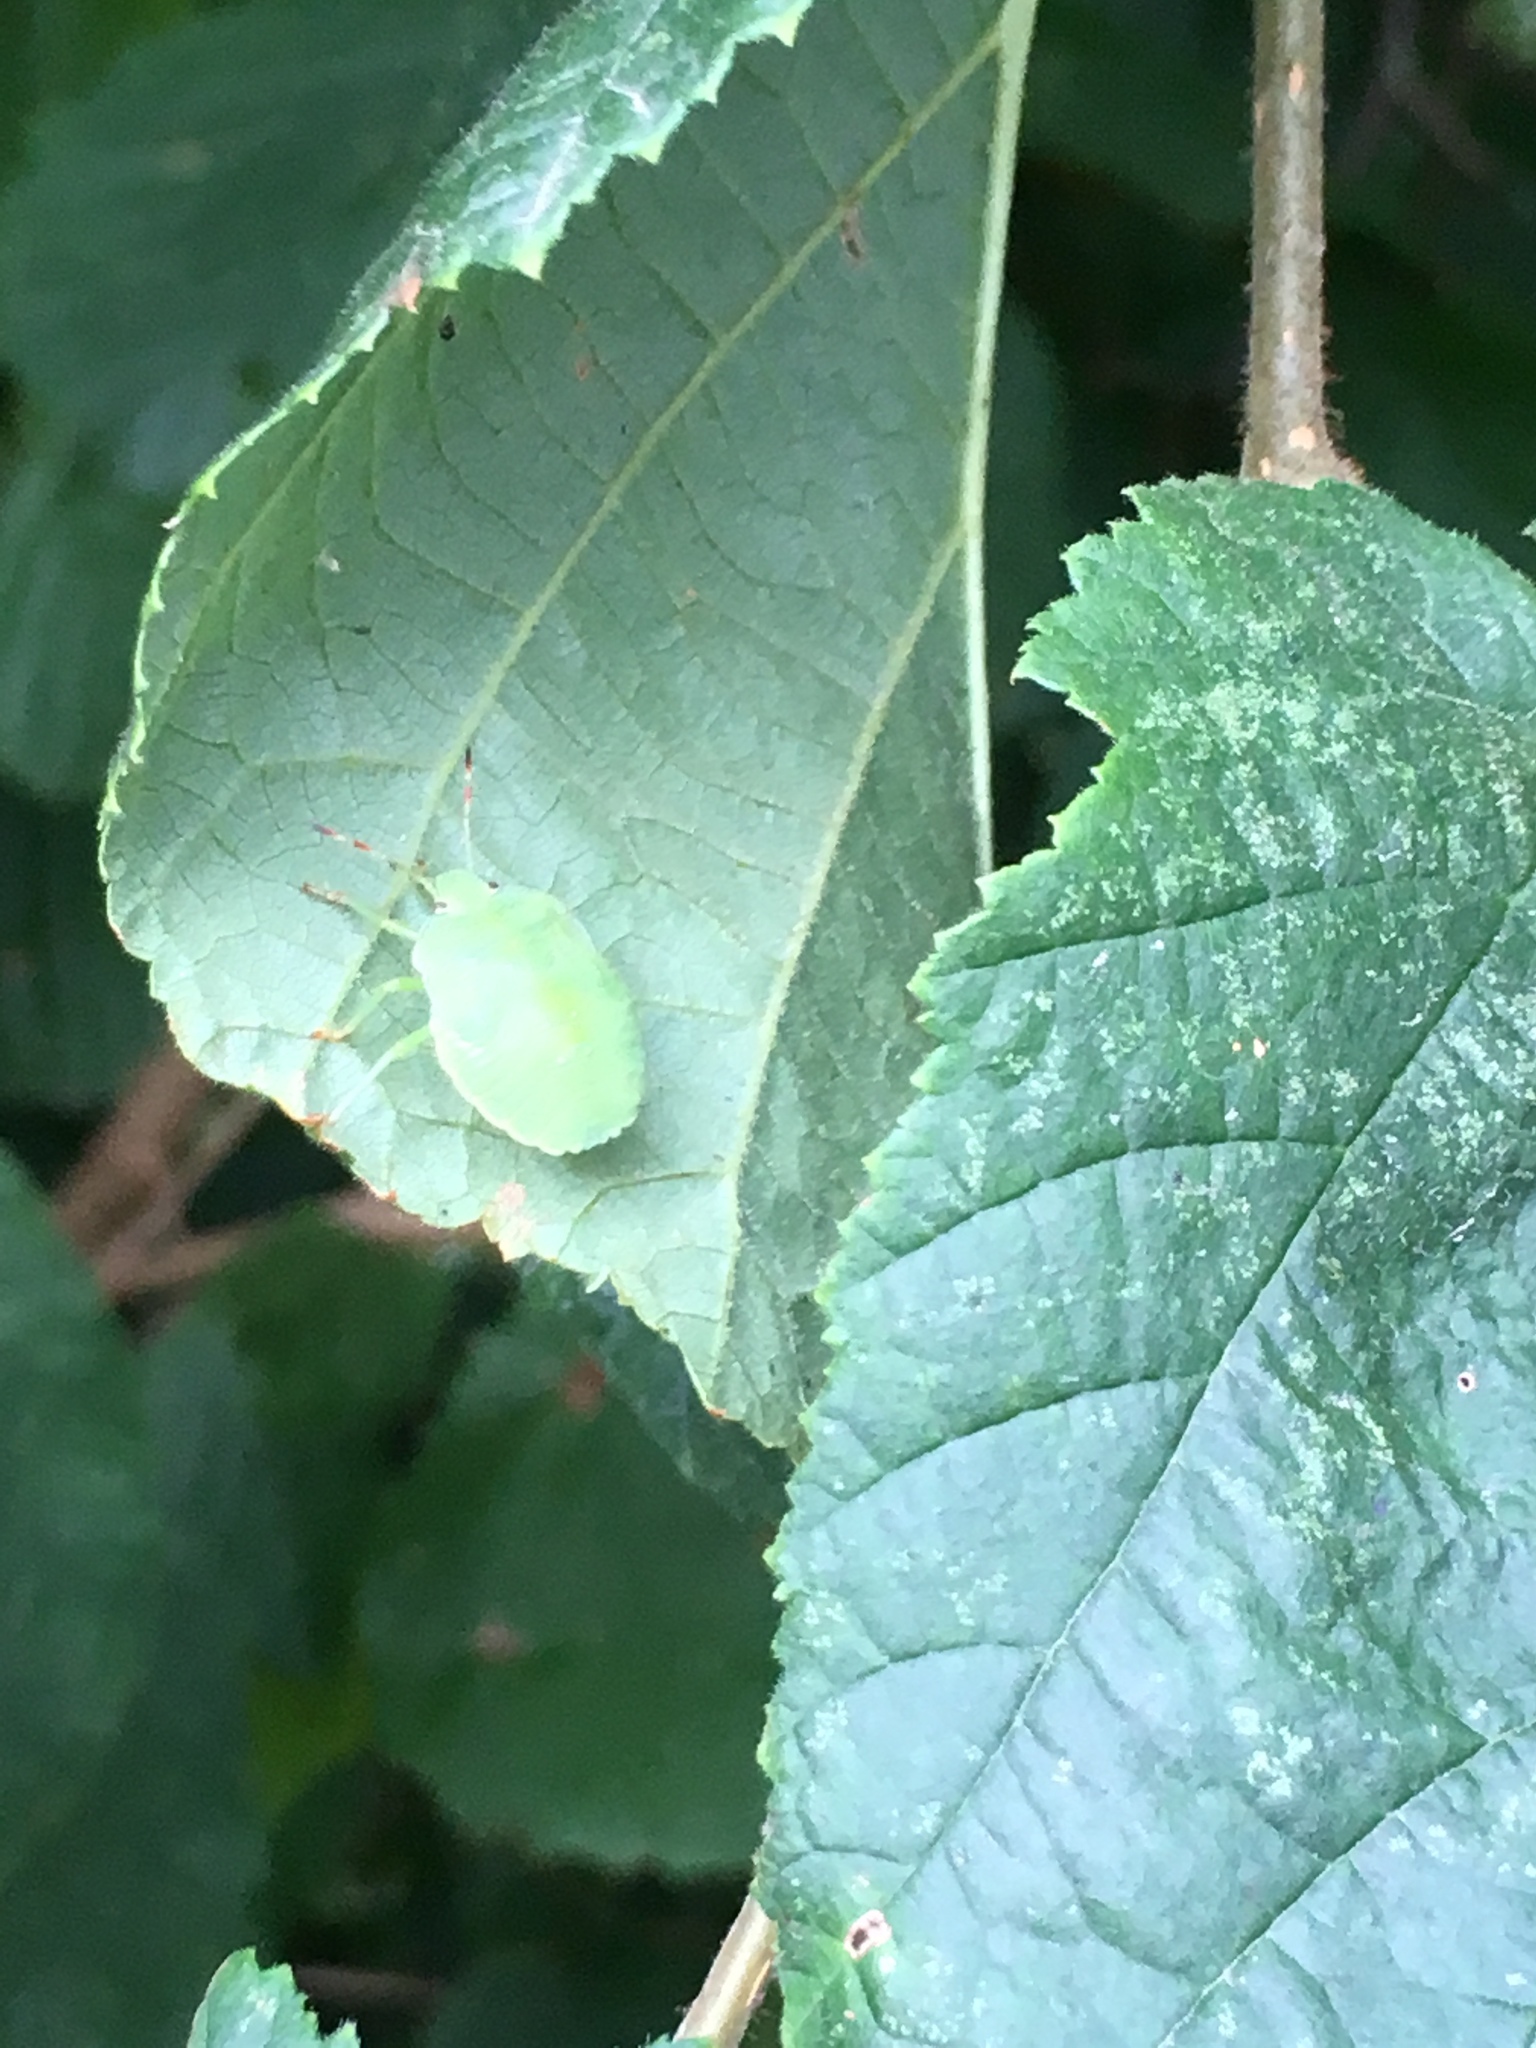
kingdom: Animalia
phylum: Arthropoda
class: Insecta
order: Hemiptera
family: Pentatomidae
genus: Palomena
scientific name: Palomena prasina
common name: Green shieldbug
